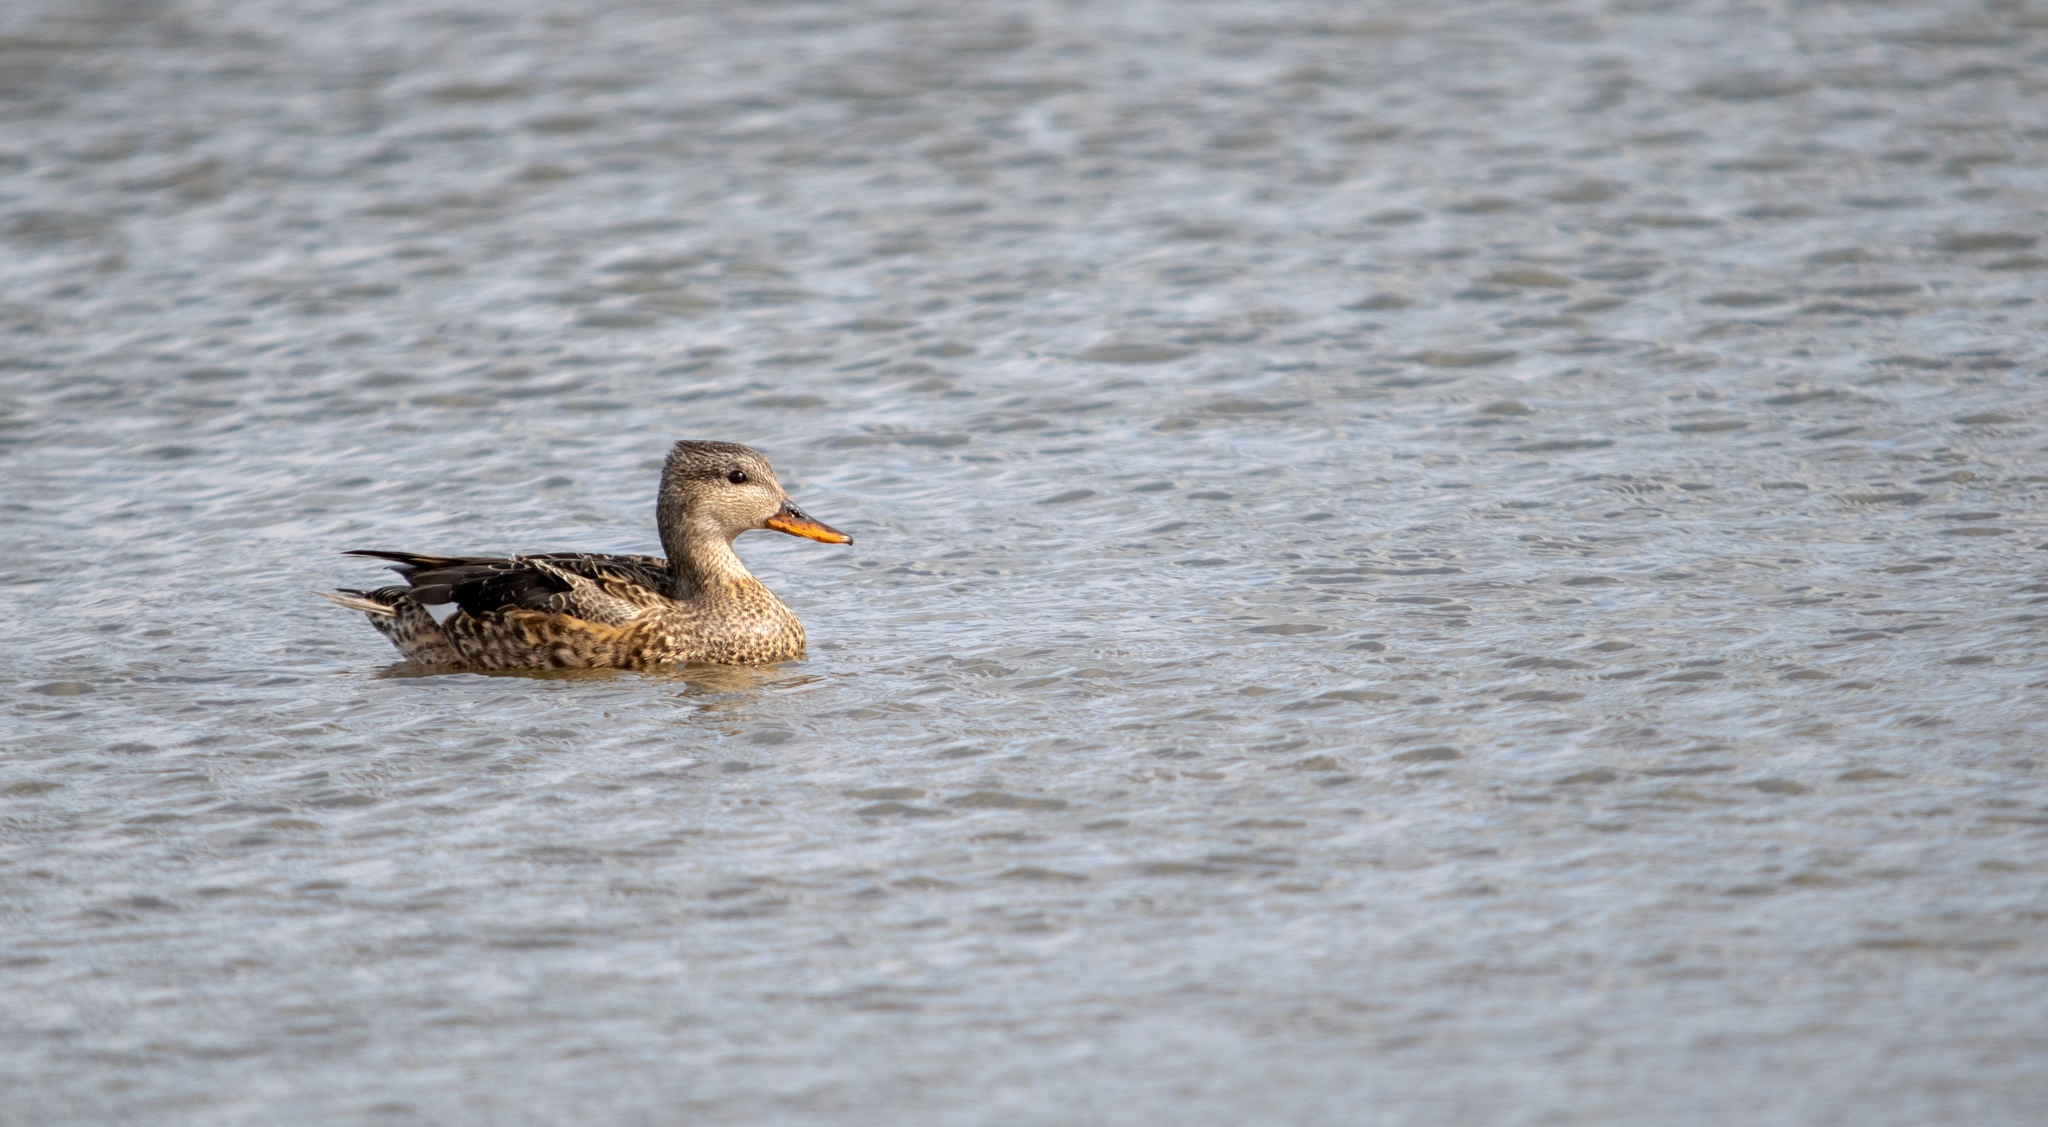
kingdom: Animalia
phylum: Chordata
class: Aves
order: Anseriformes
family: Anatidae
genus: Mareca
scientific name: Mareca strepera
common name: Gadwall
